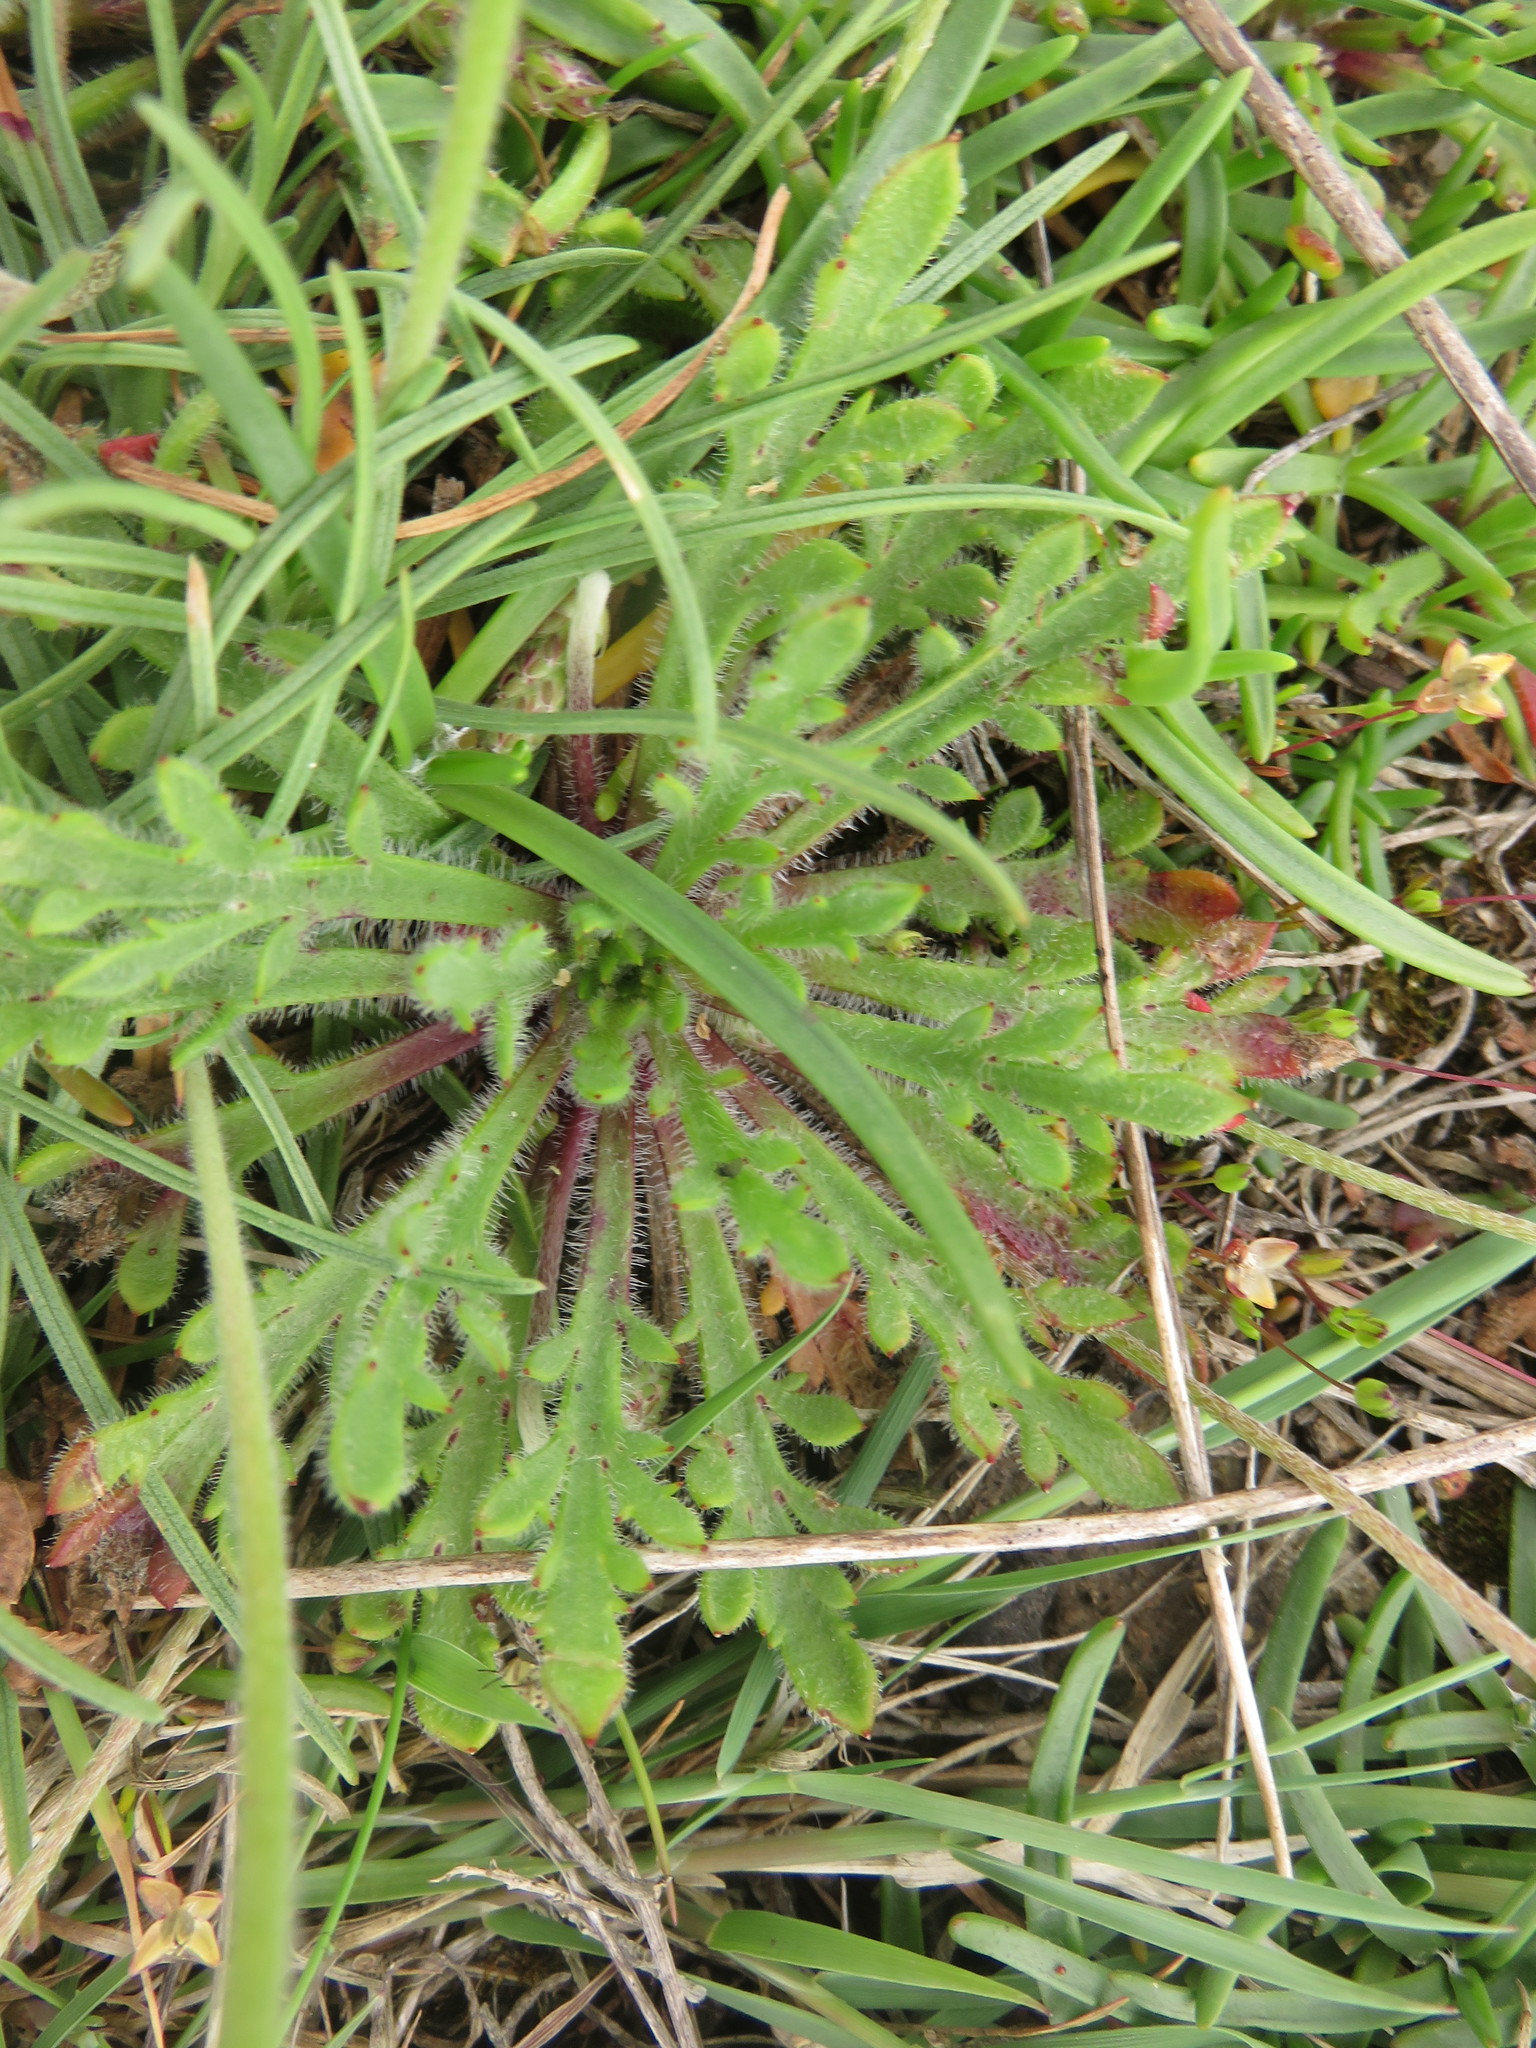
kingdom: Plantae
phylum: Tracheophyta
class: Magnoliopsida
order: Lamiales
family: Plantaginaceae
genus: Plantago
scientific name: Plantago coronopus
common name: Buck's-horn plantain
